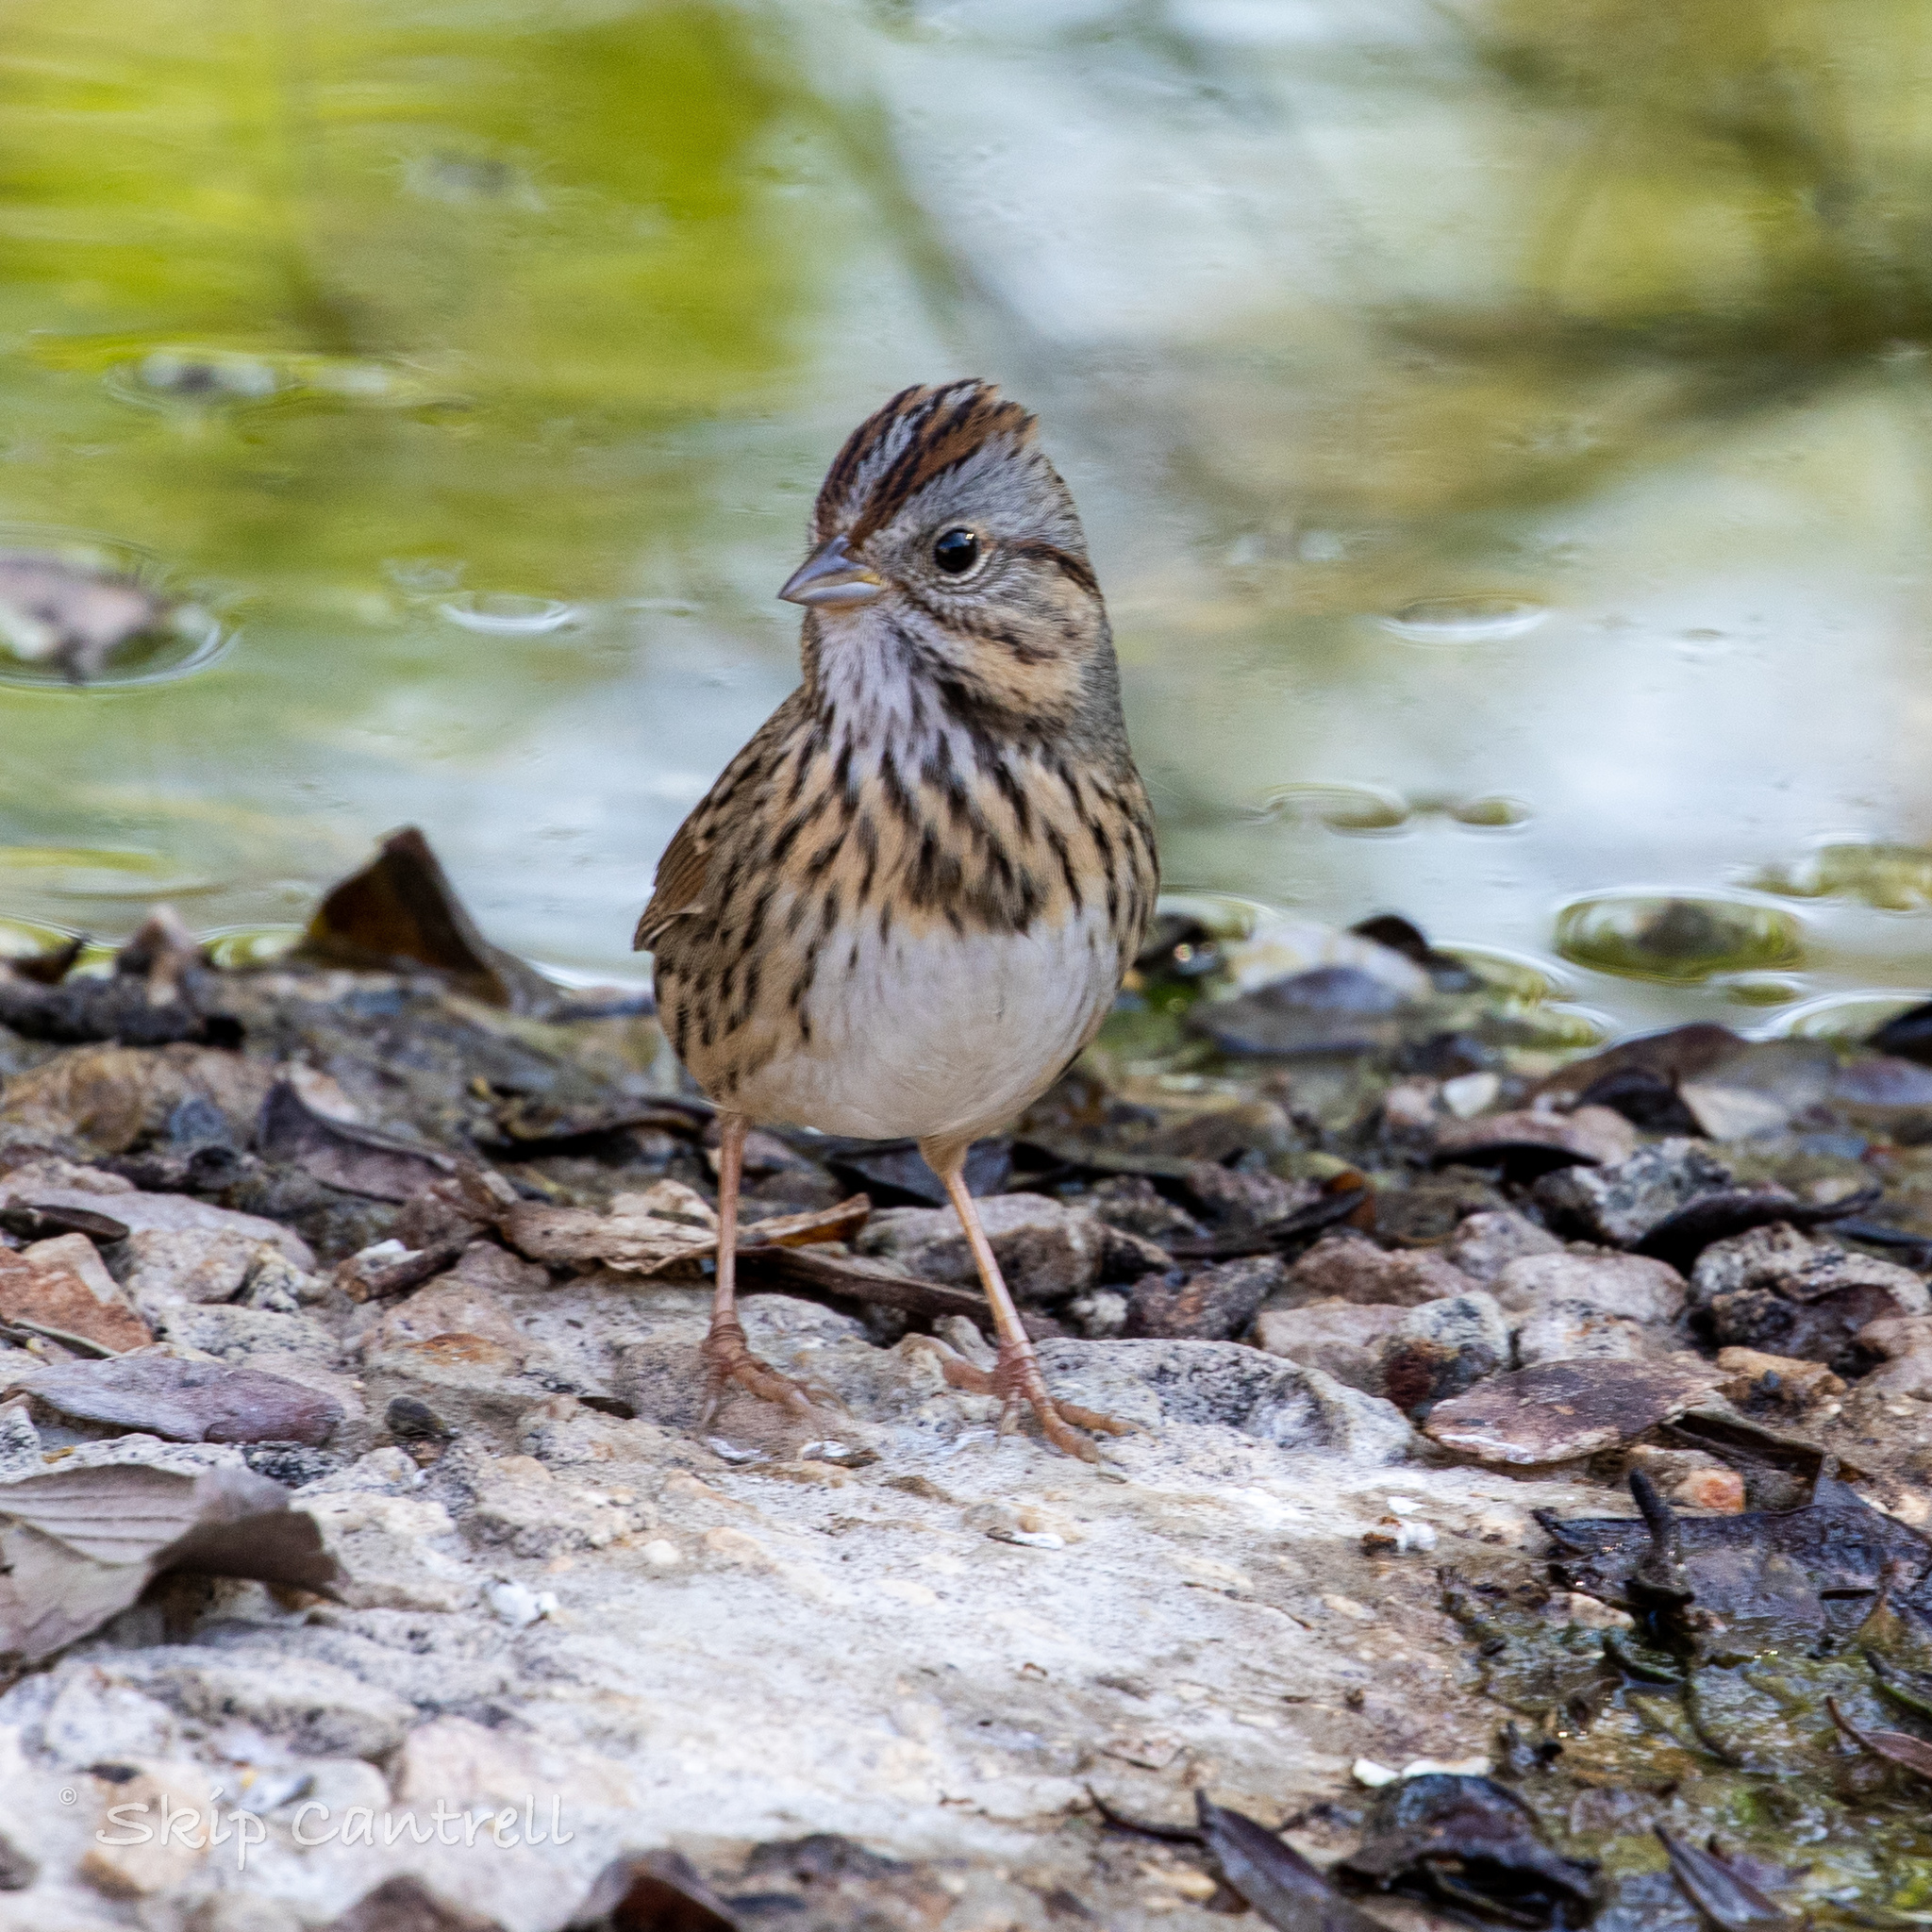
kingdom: Animalia
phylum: Chordata
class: Aves
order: Passeriformes
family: Passerellidae
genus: Melospiza
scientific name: Melospiza lincolnii
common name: Lincoln's sparrow
